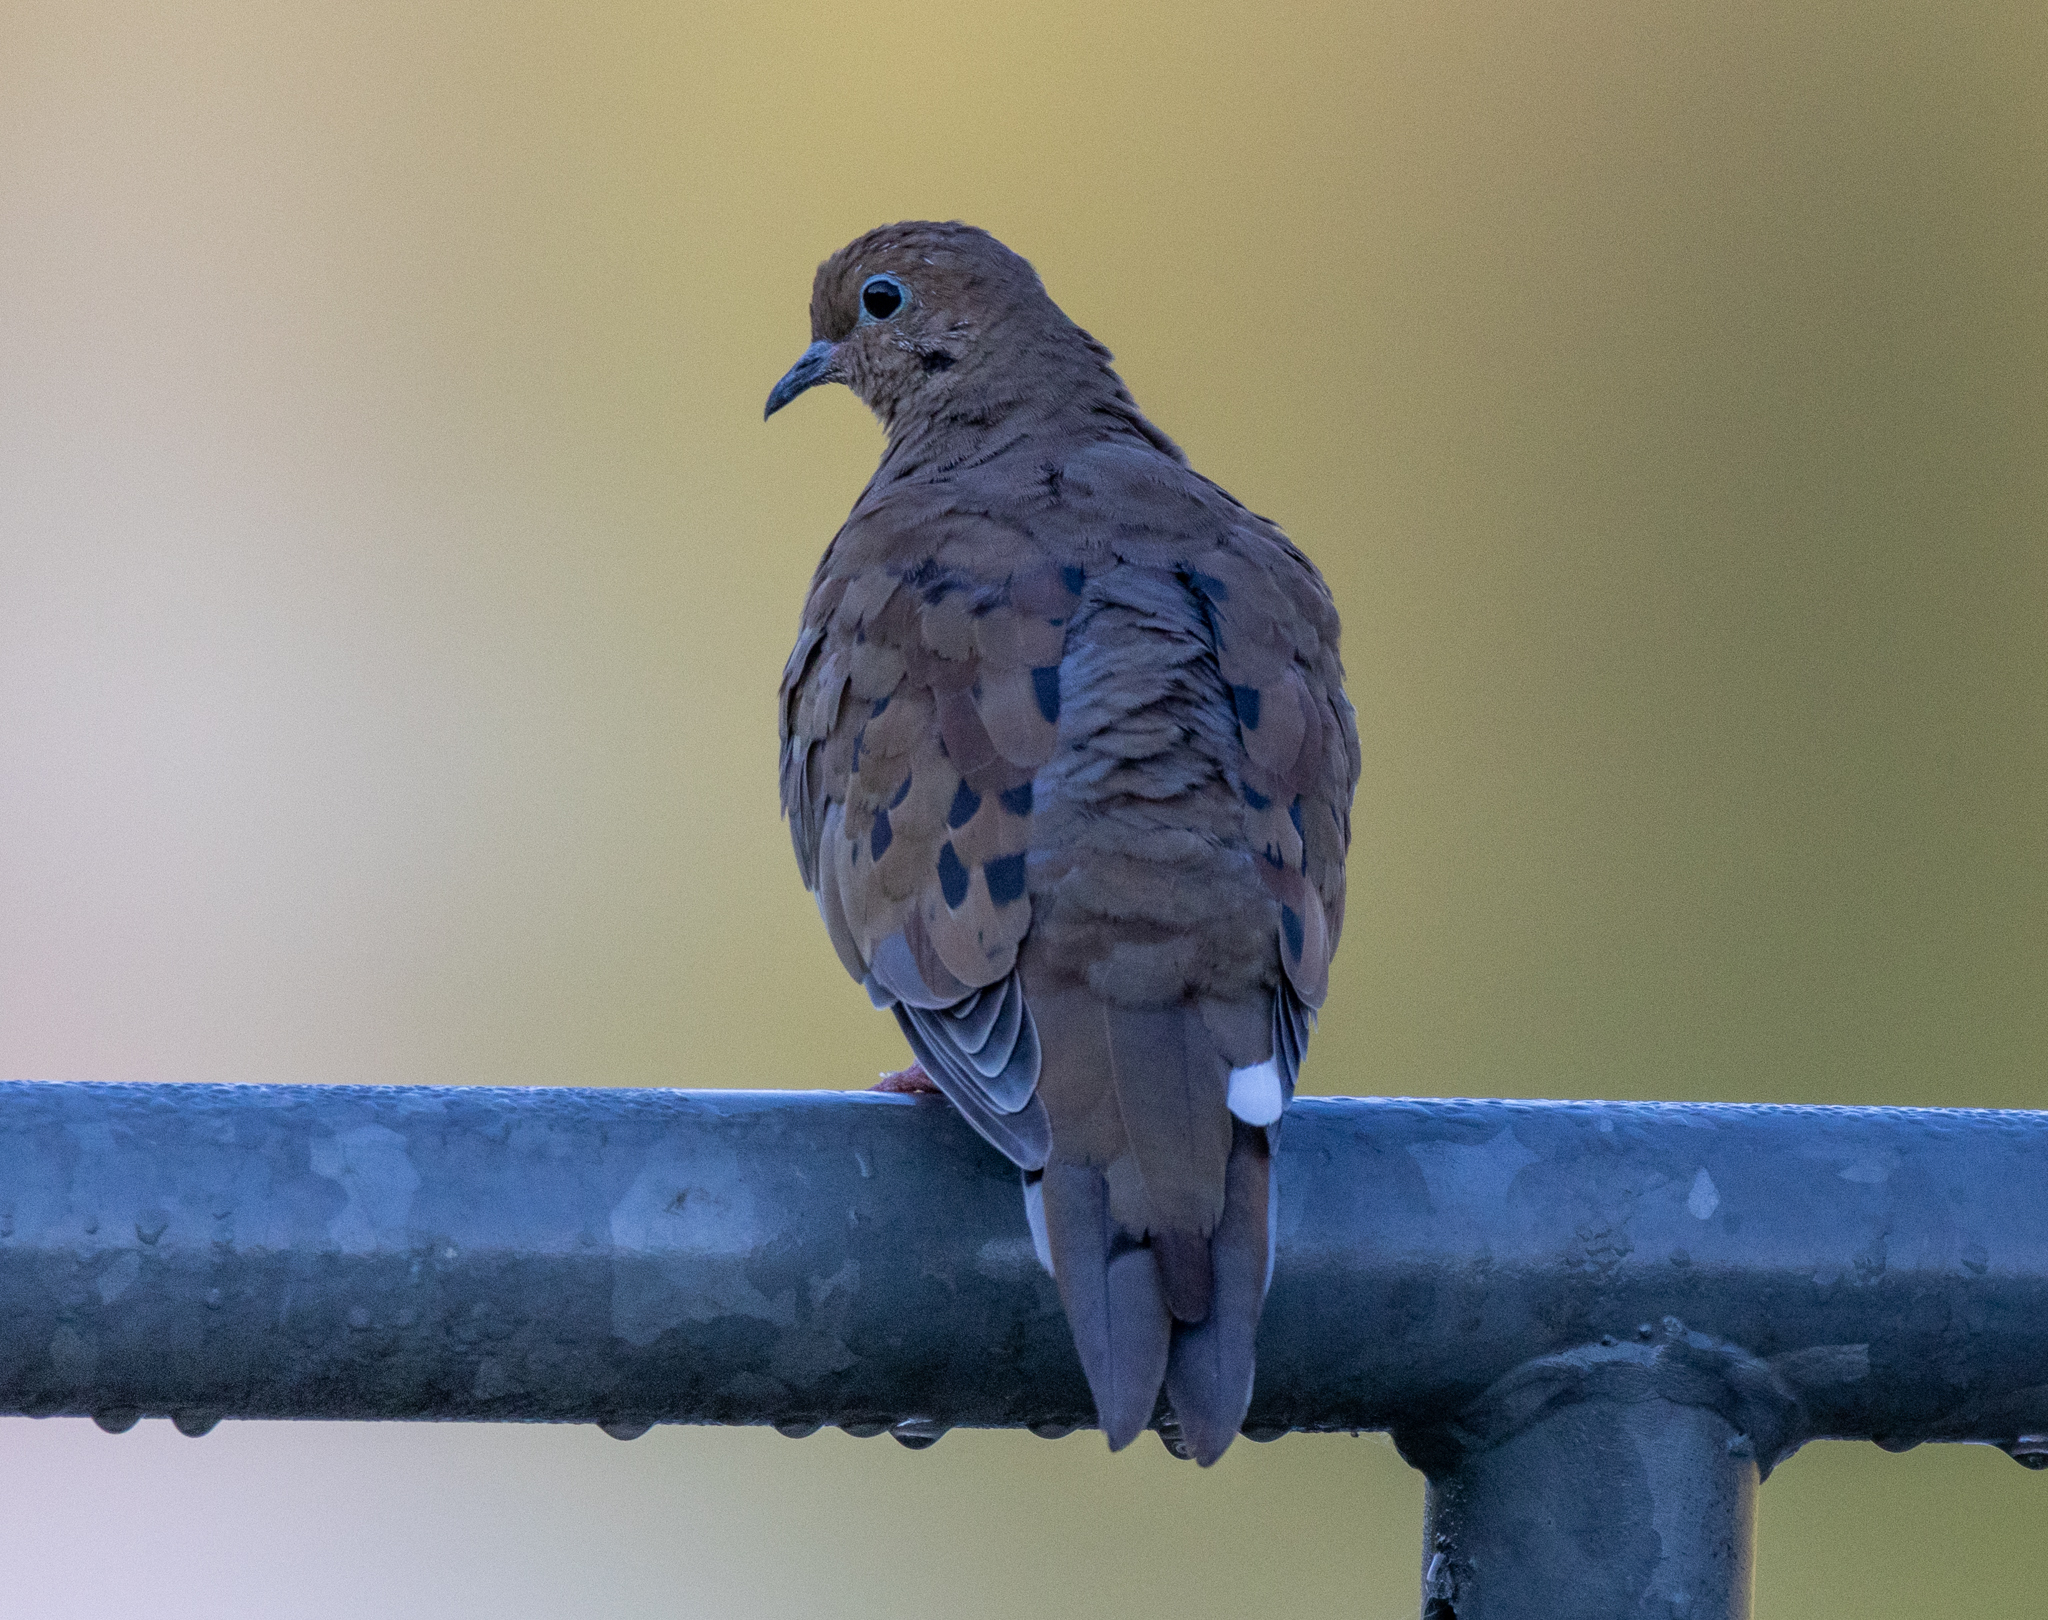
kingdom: Animalia
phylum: Chordata
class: Aves
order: Columbiformes
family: Columbidae
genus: Zenaida
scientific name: Zenaida macroura
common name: Mourning dove
